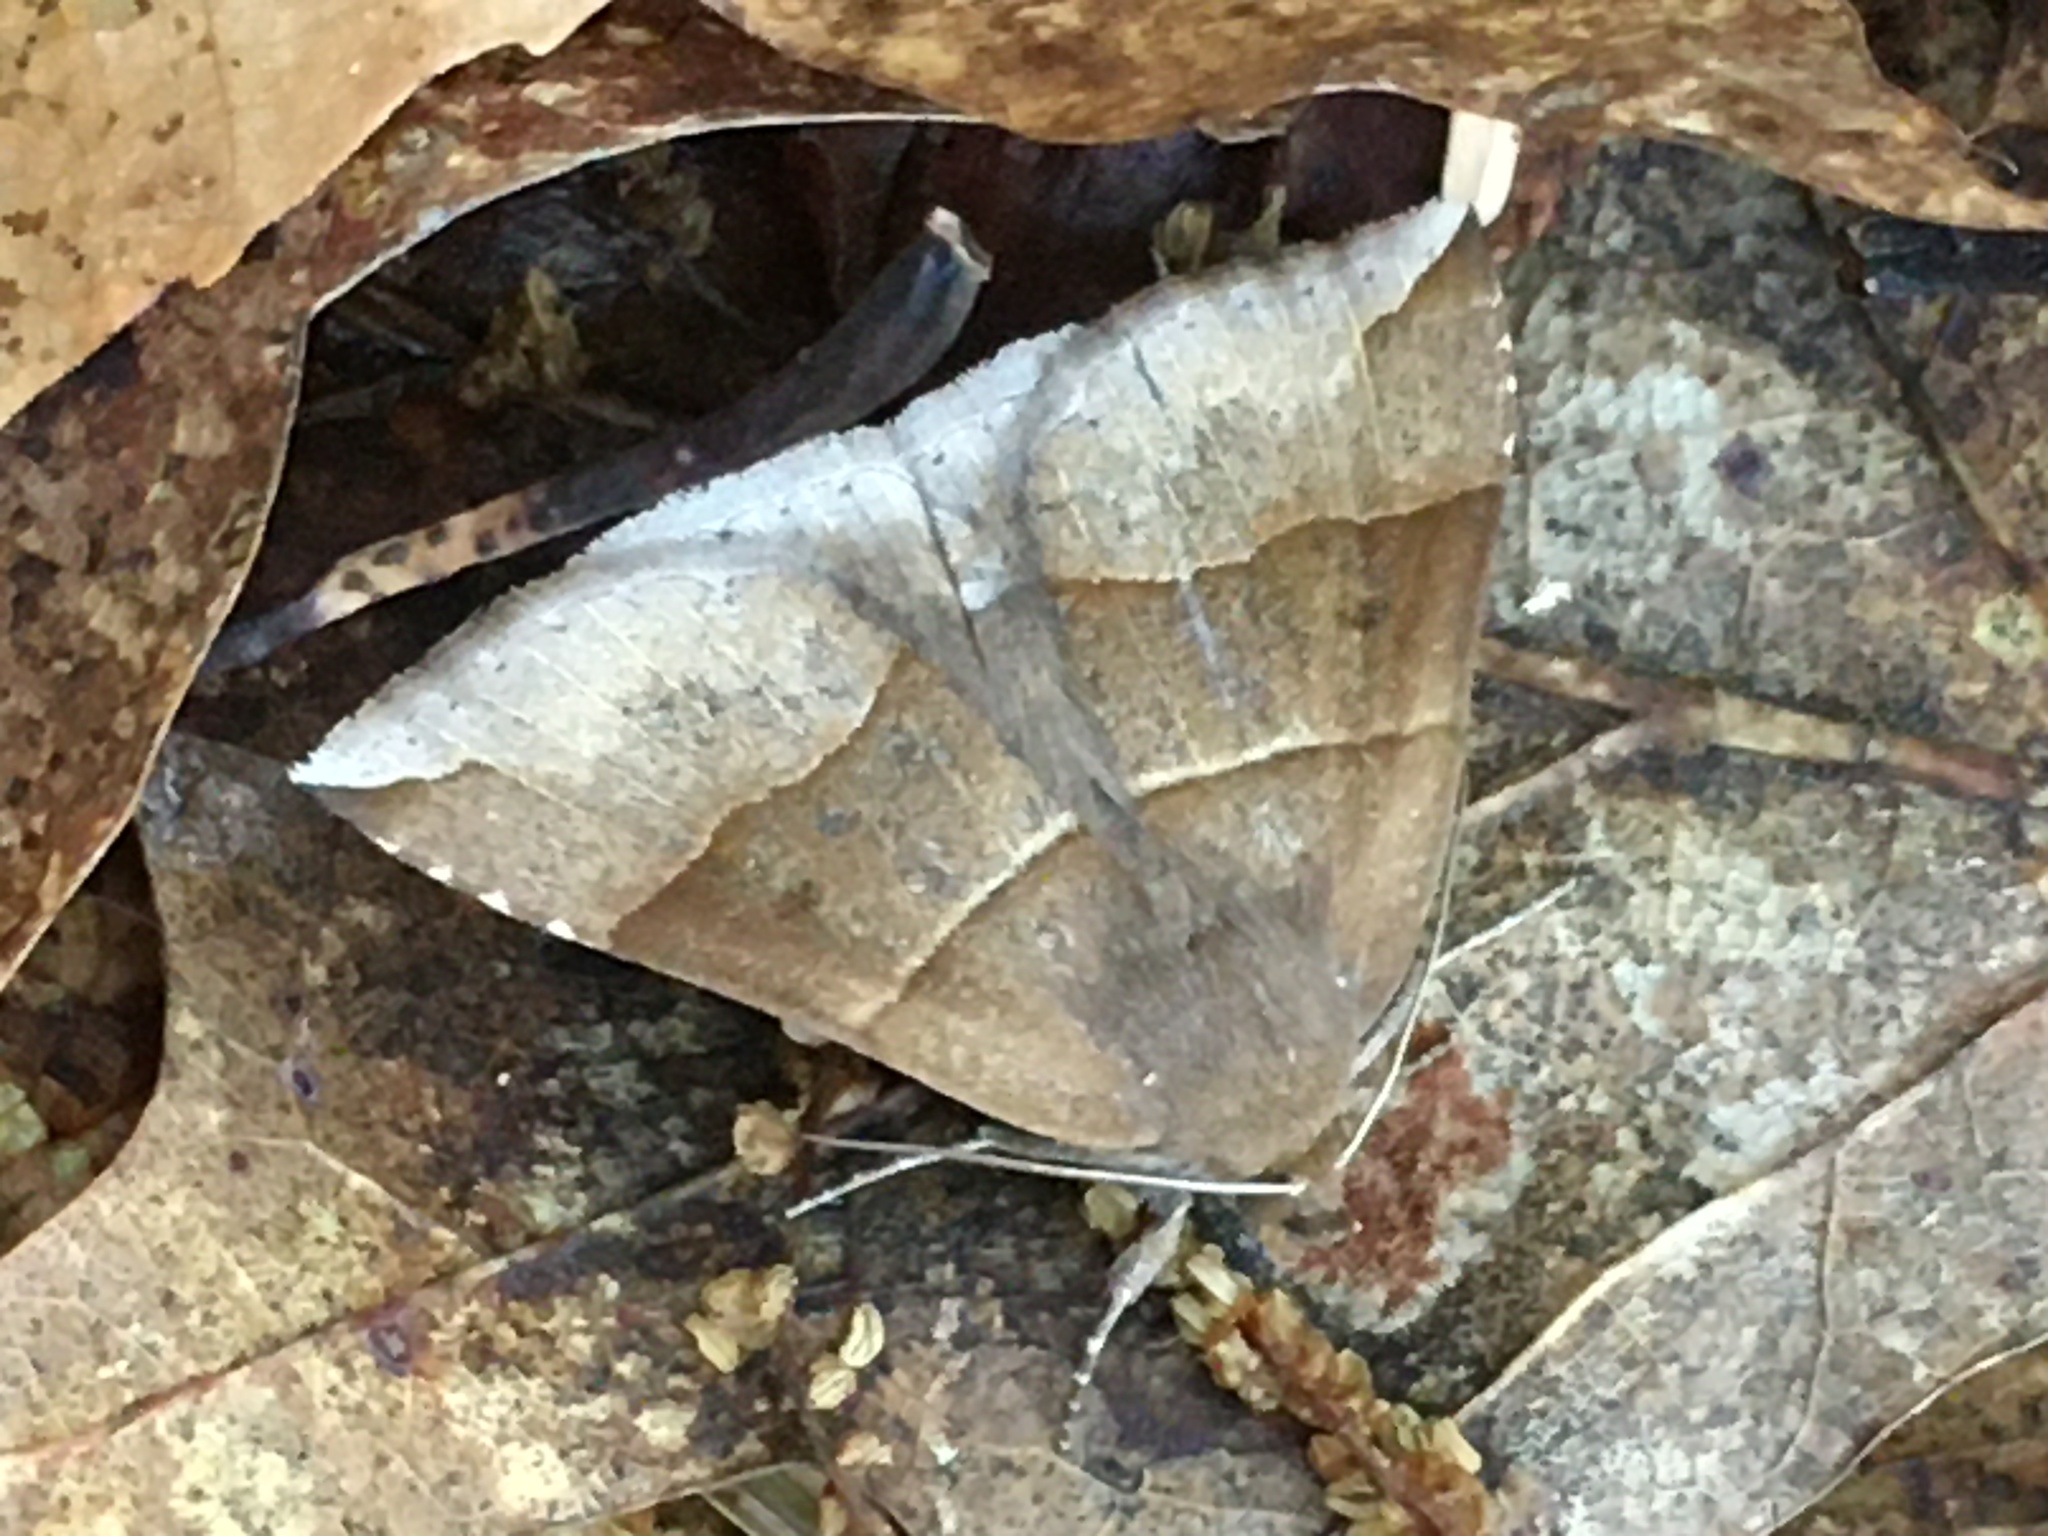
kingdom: Animalia
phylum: Arthropoda
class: Insecta
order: Lepidoptera
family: Erebidae
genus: Parallelia
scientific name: Parallelia bistriaris
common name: Maple looper moth
